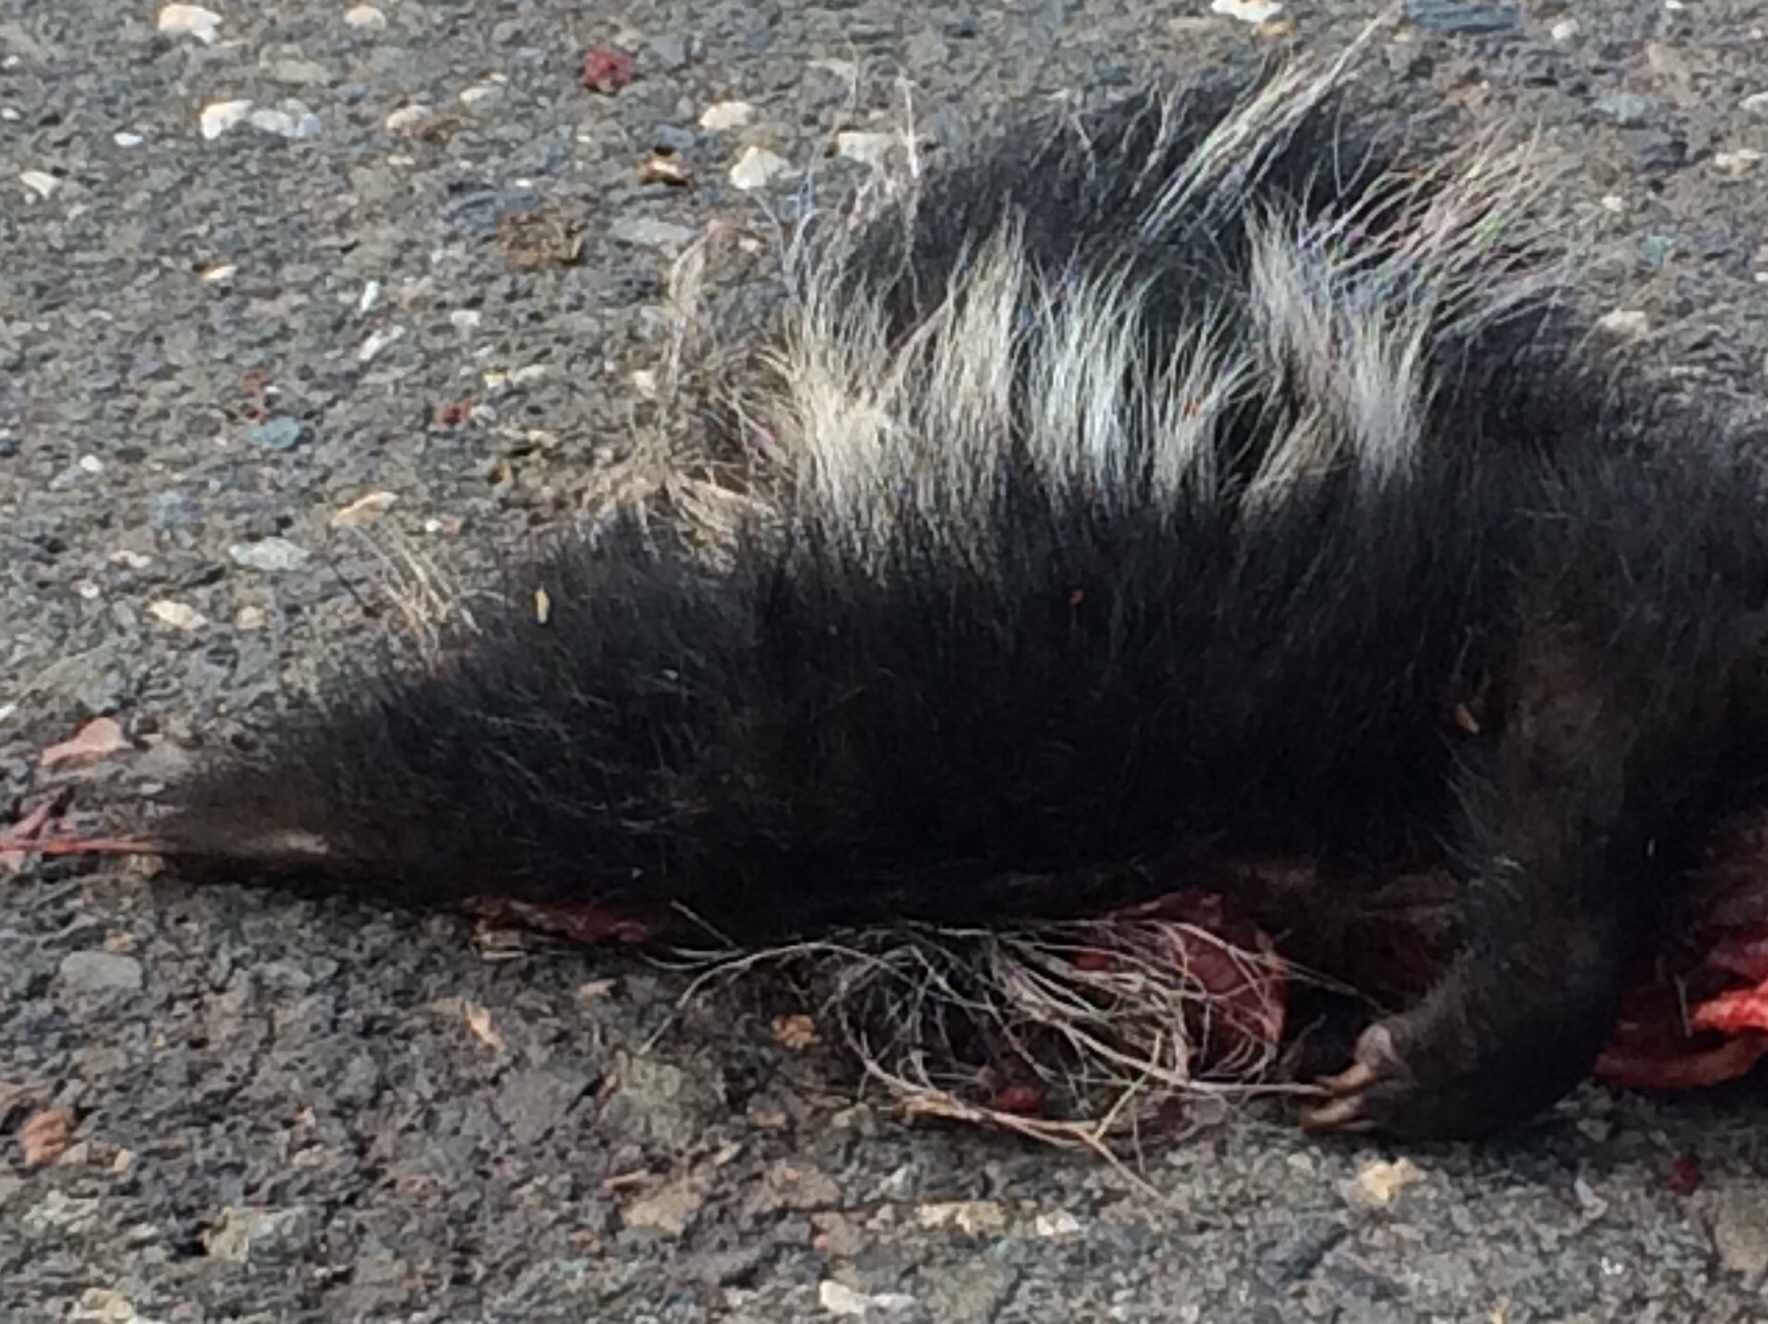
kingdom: Animalia
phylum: Chordata
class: Mammalia
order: Carnivora
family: Mephitidae
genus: Mephitis
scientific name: Mephitis mephitis
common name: Striped skunk
